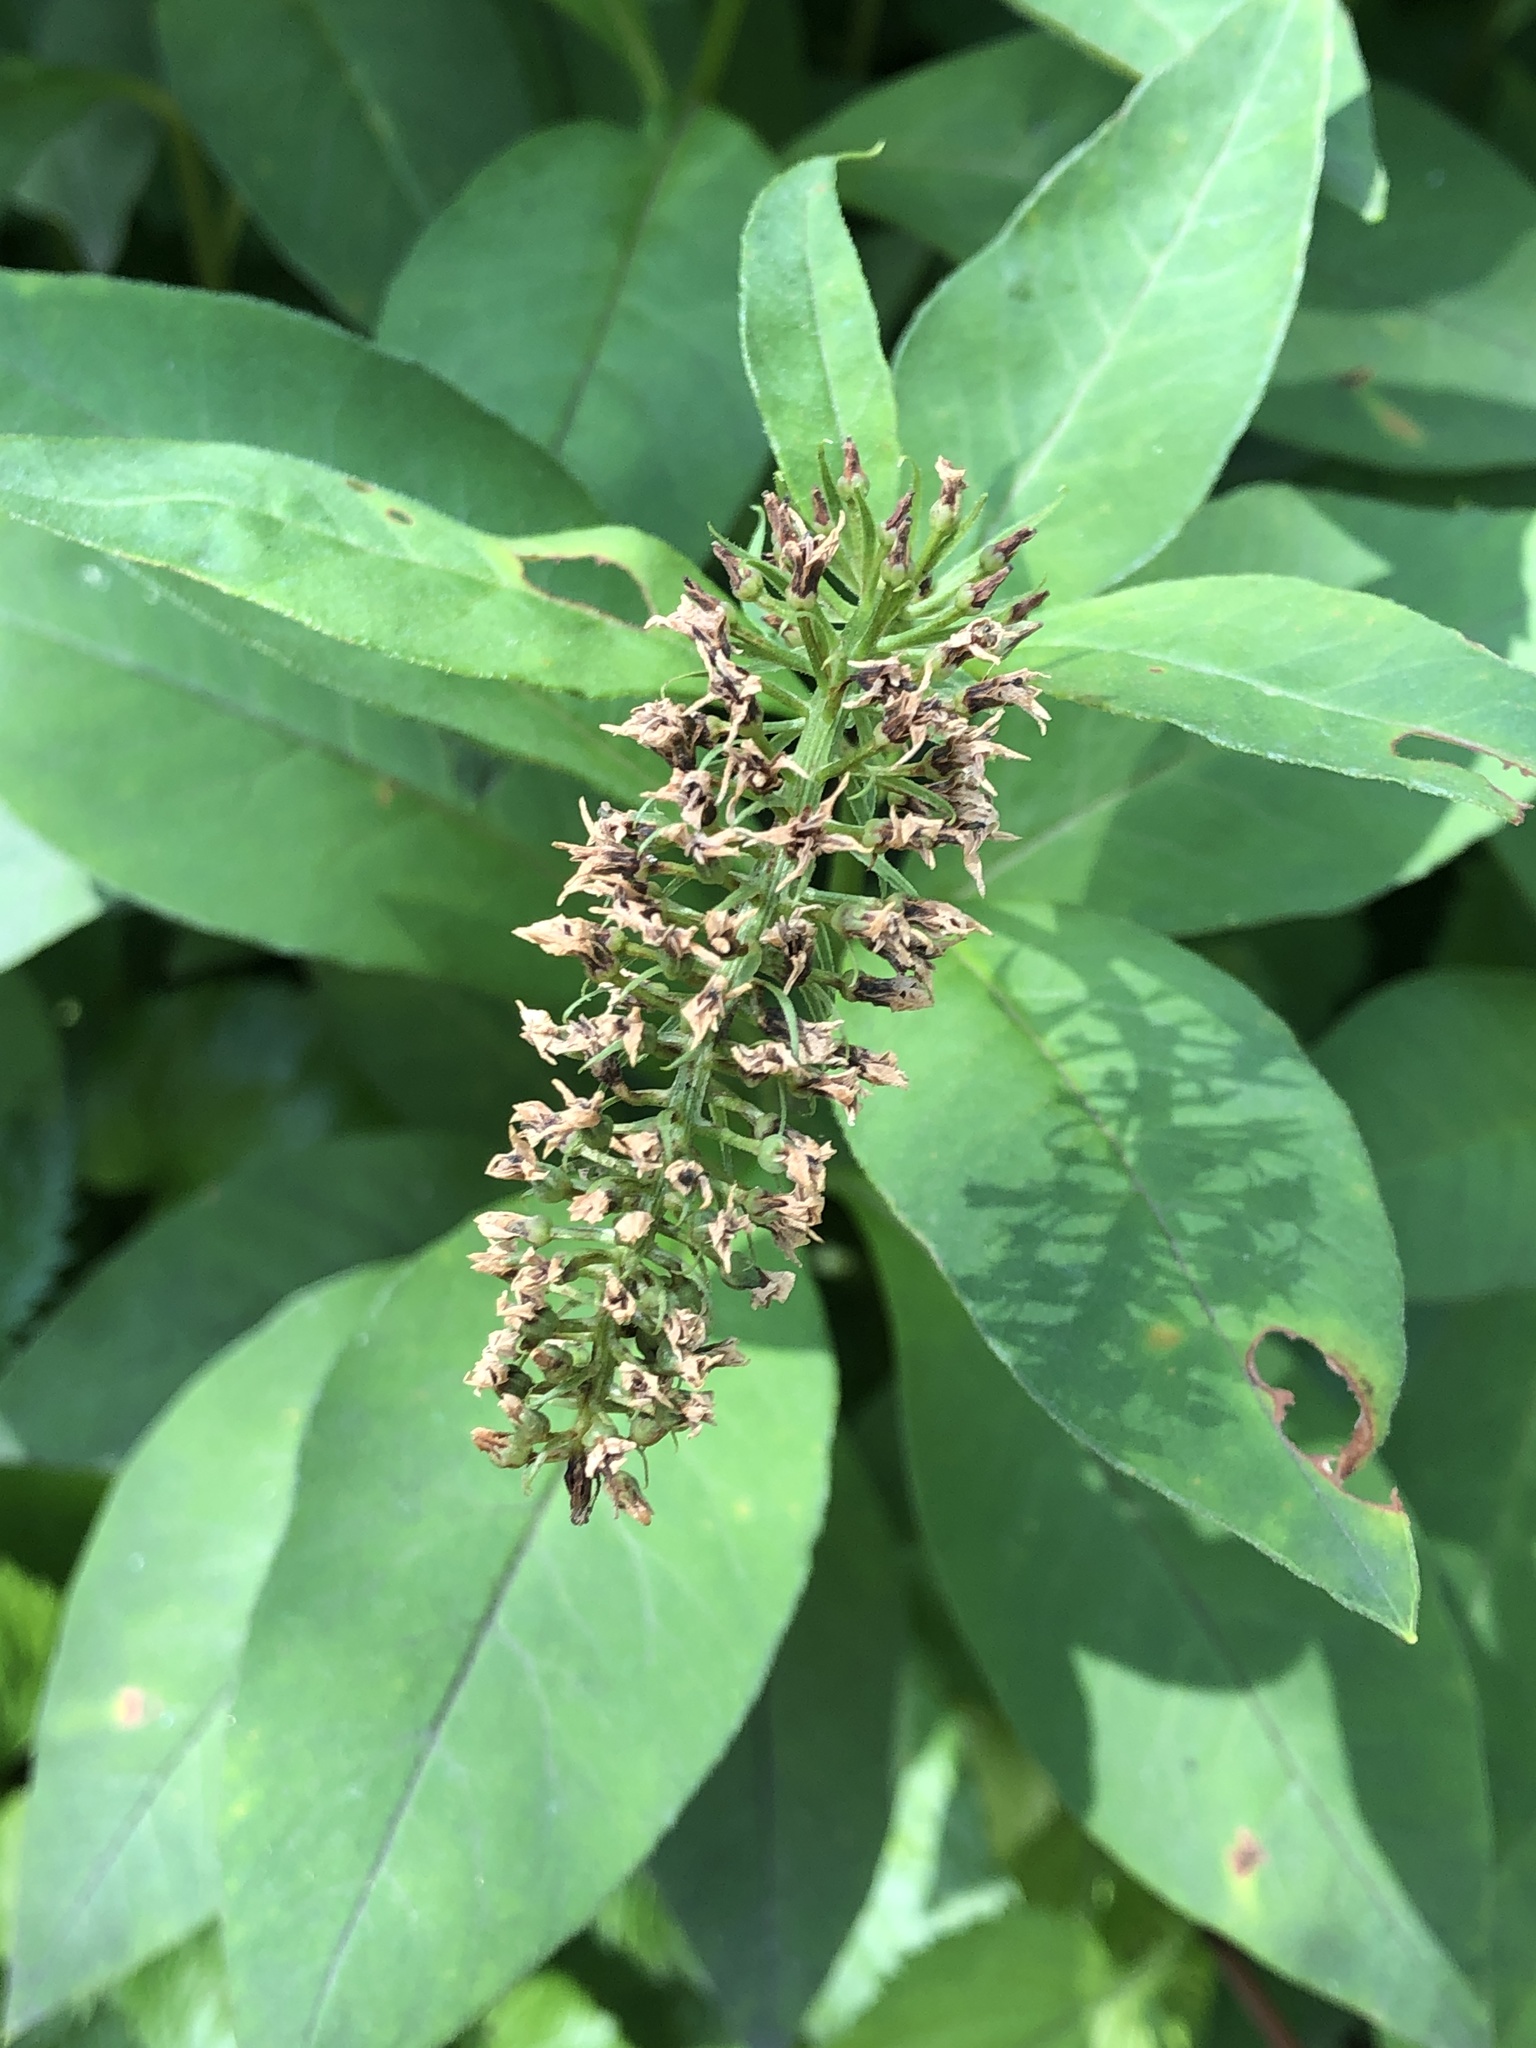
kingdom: Plantae
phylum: Tracheophyta
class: Magnoliopsida
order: Ericales
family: Primulaceae
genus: Lysimachia
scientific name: Lysimachia clethroides
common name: Gooseneck loosestrife
